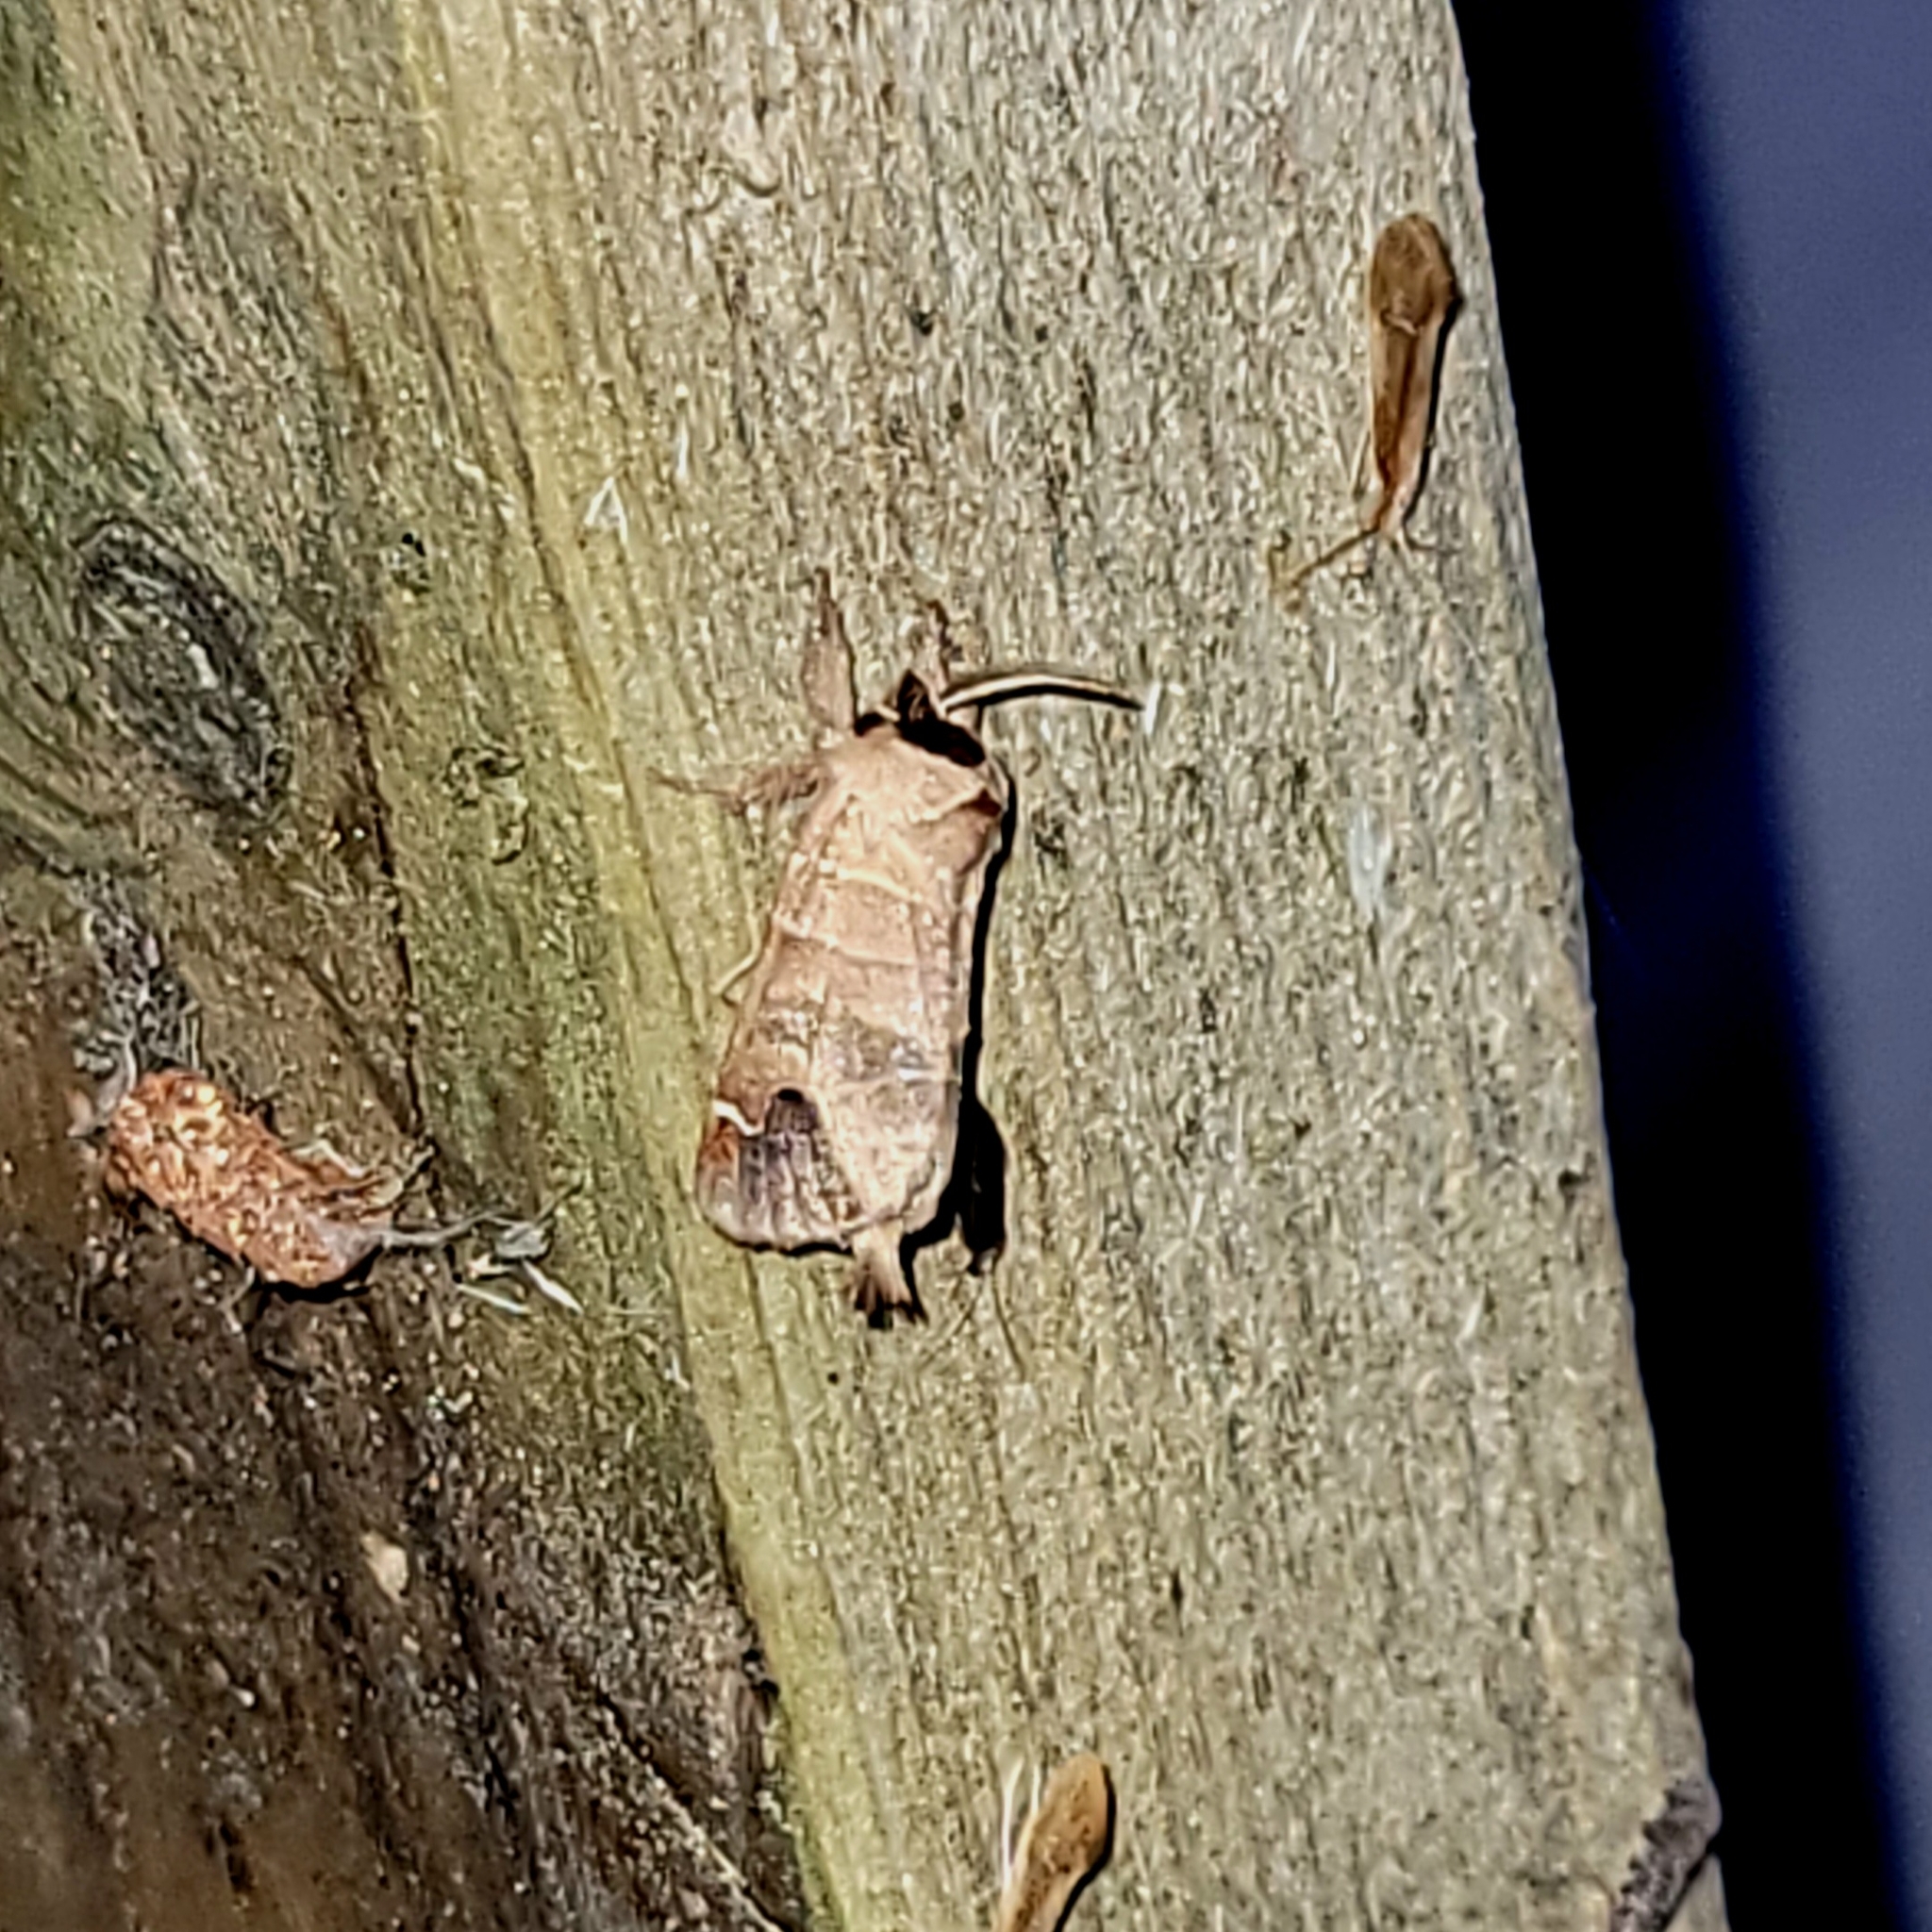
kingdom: Animalia
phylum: Arthropoda
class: Insecta
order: Lepidoptera
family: Notodontidae
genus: Clostera
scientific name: Clostera albosigma
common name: Sigmoid prominent
